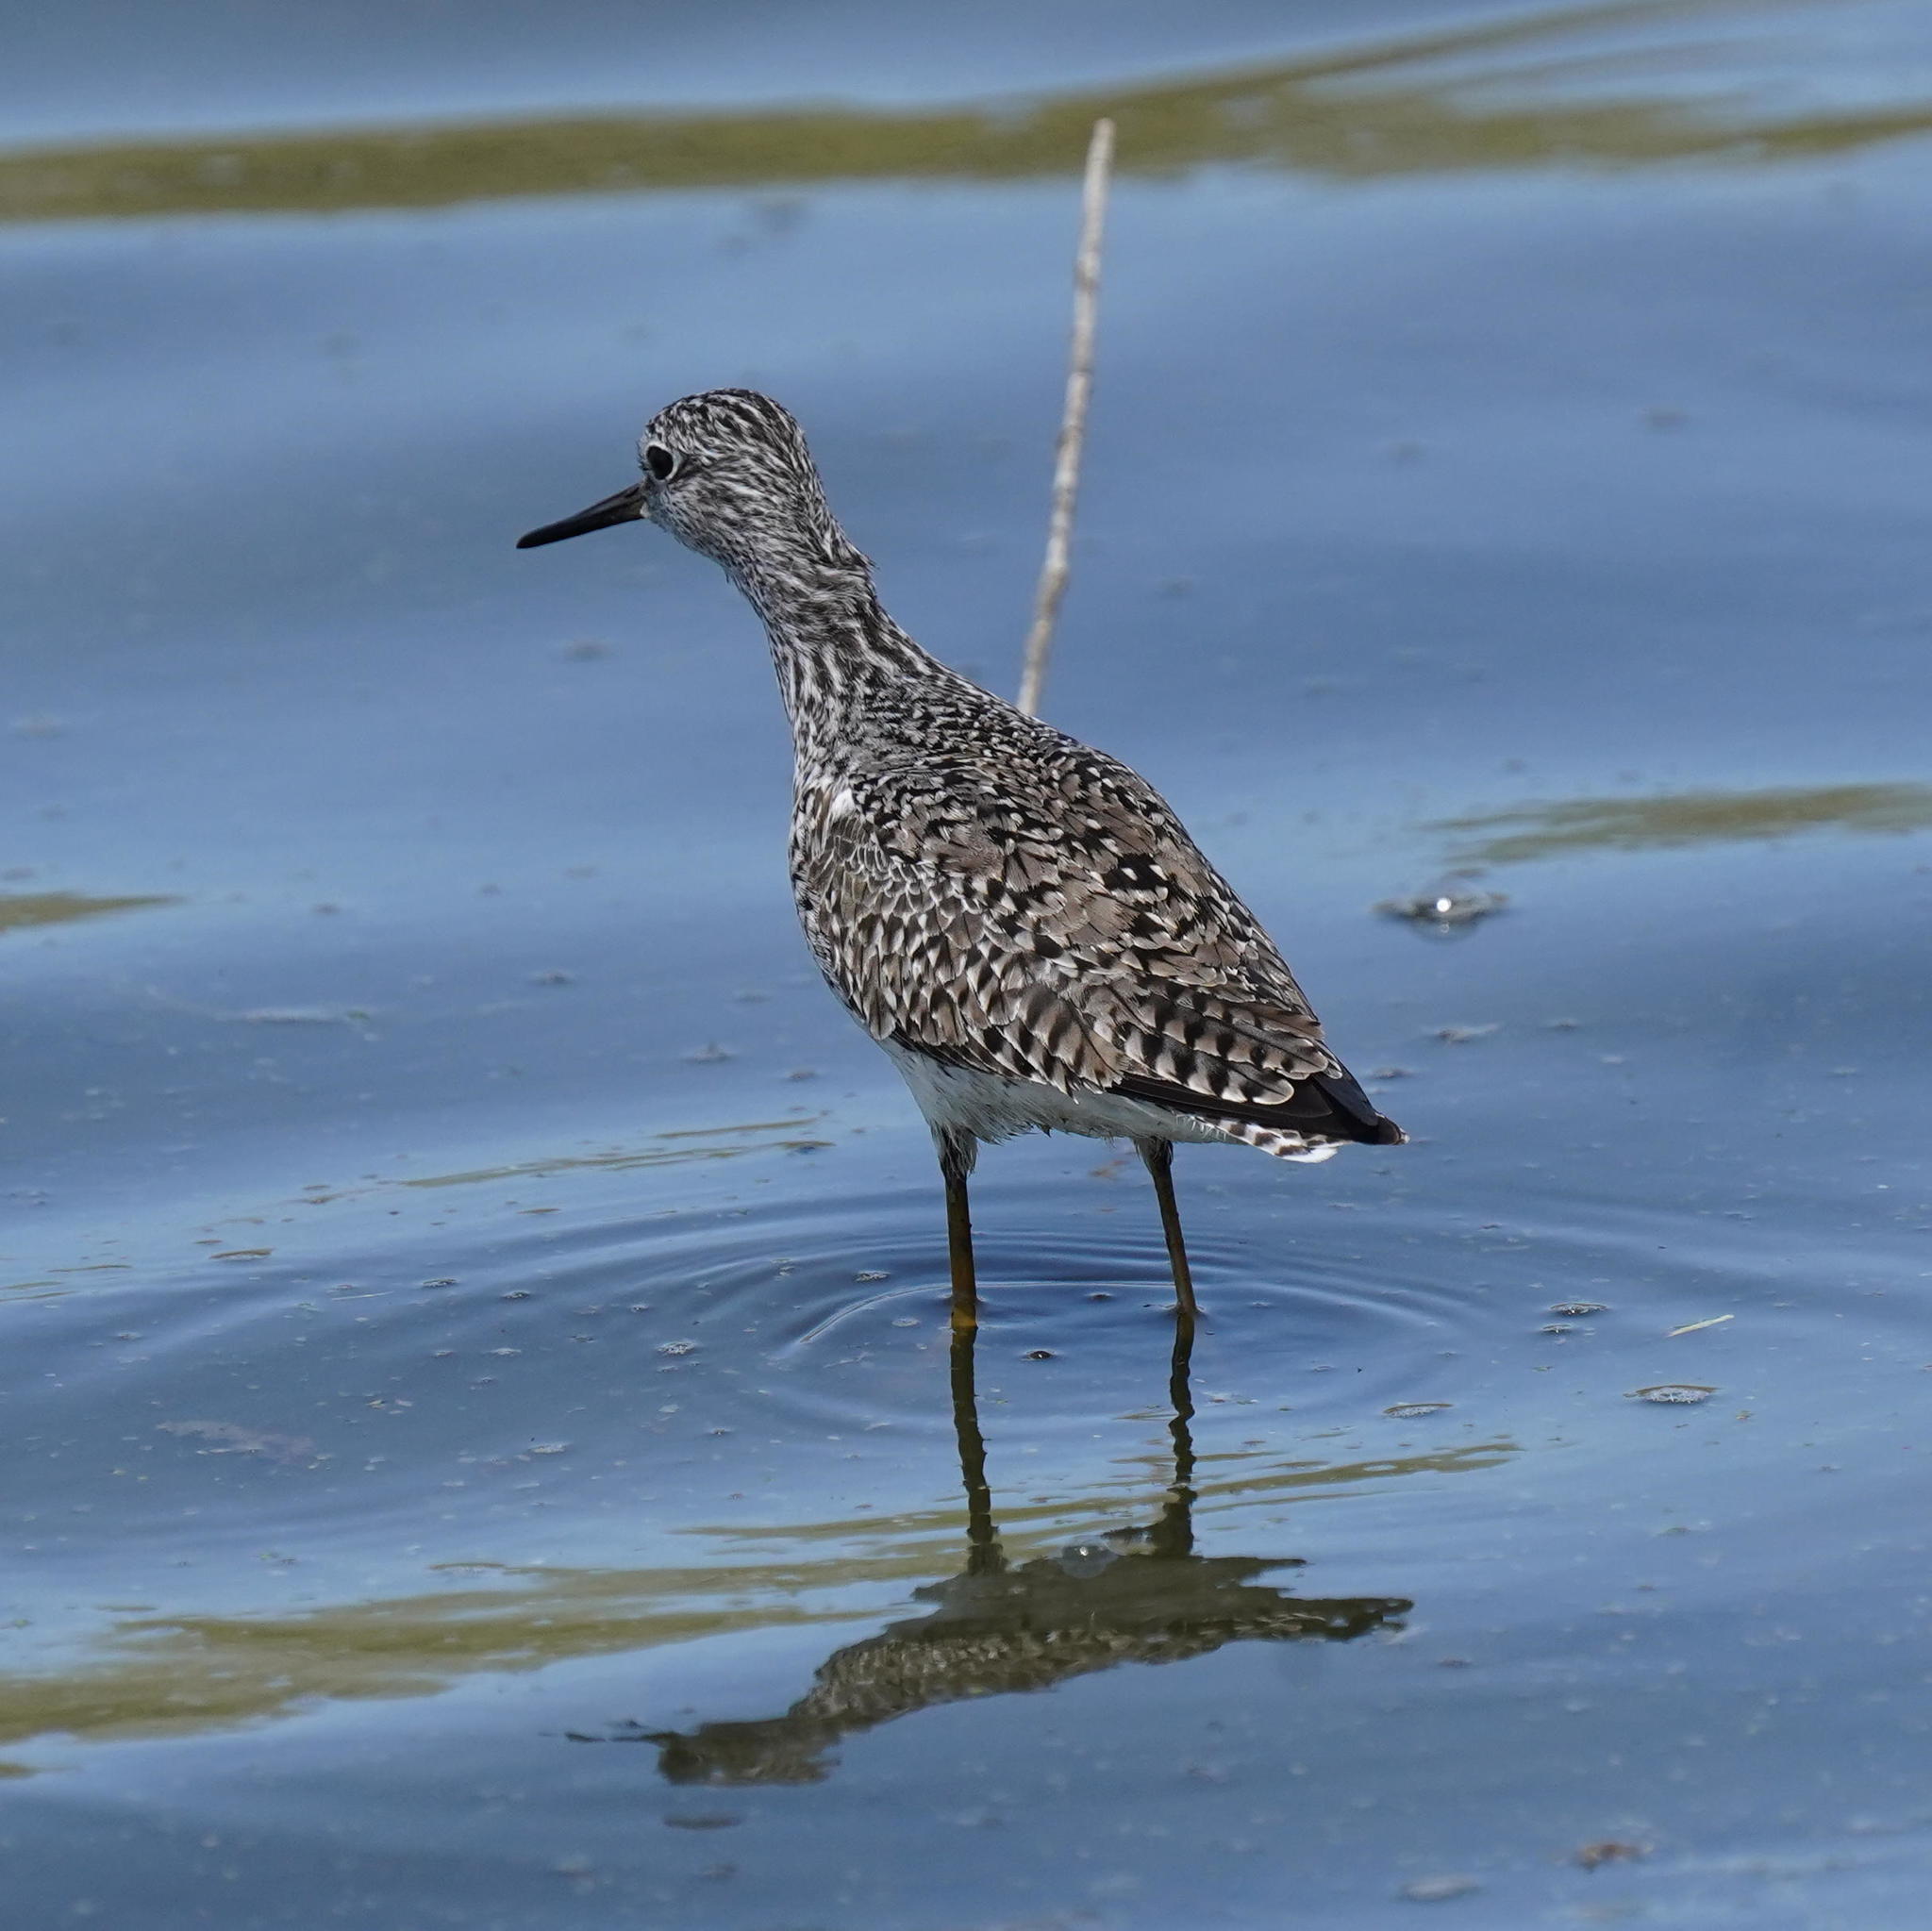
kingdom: Animalia
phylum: Chordata
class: Aves
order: Charadriiformes
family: Scolopacidae
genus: Tringa
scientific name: Tringa flavipes
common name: Lesser yellowlegs
